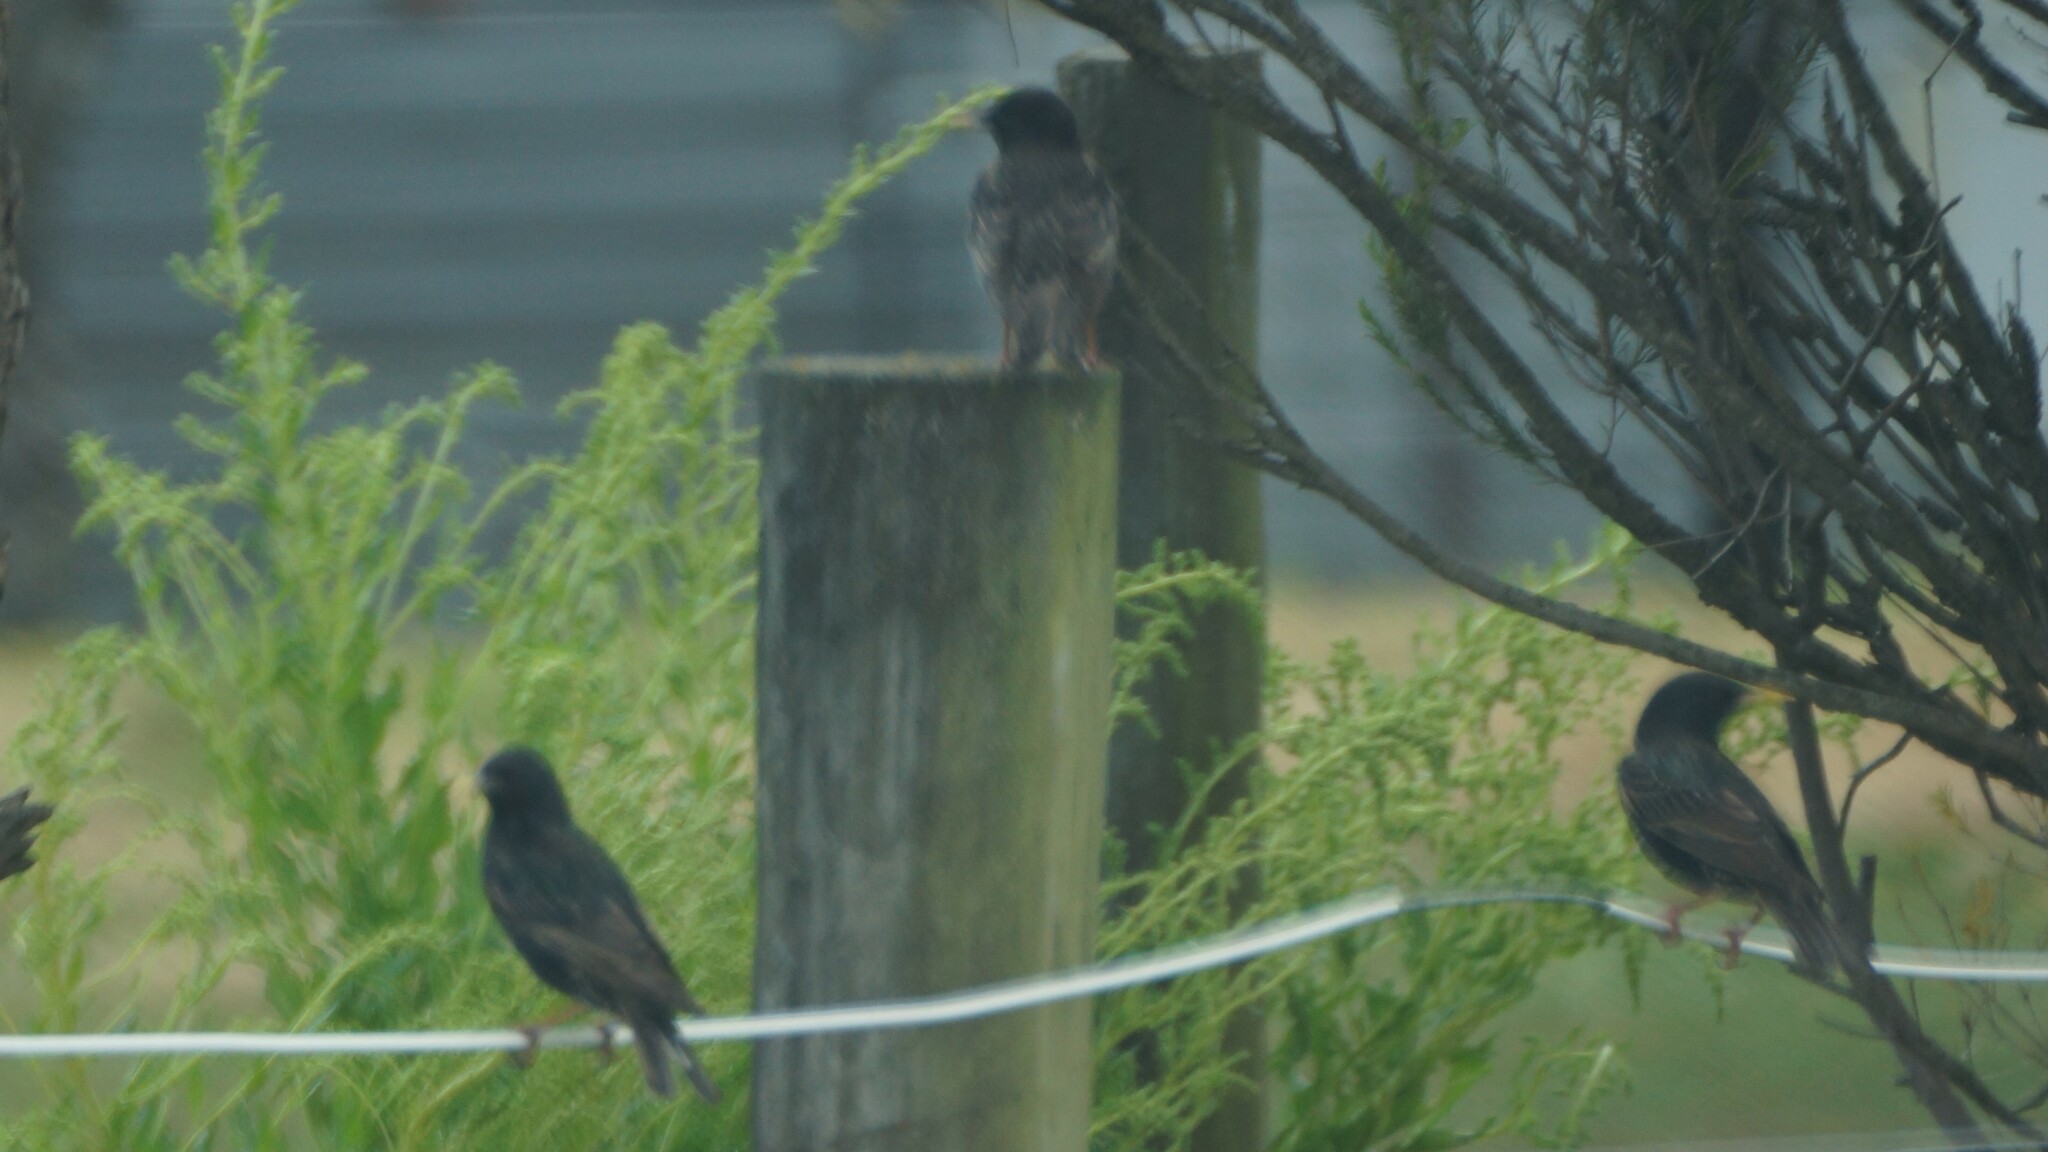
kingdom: Animalia
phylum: Chordata
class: Aves
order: Passeriformes
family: Sturnidae
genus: Sturnus
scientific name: Sturnus vulgaris
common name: Common starling
